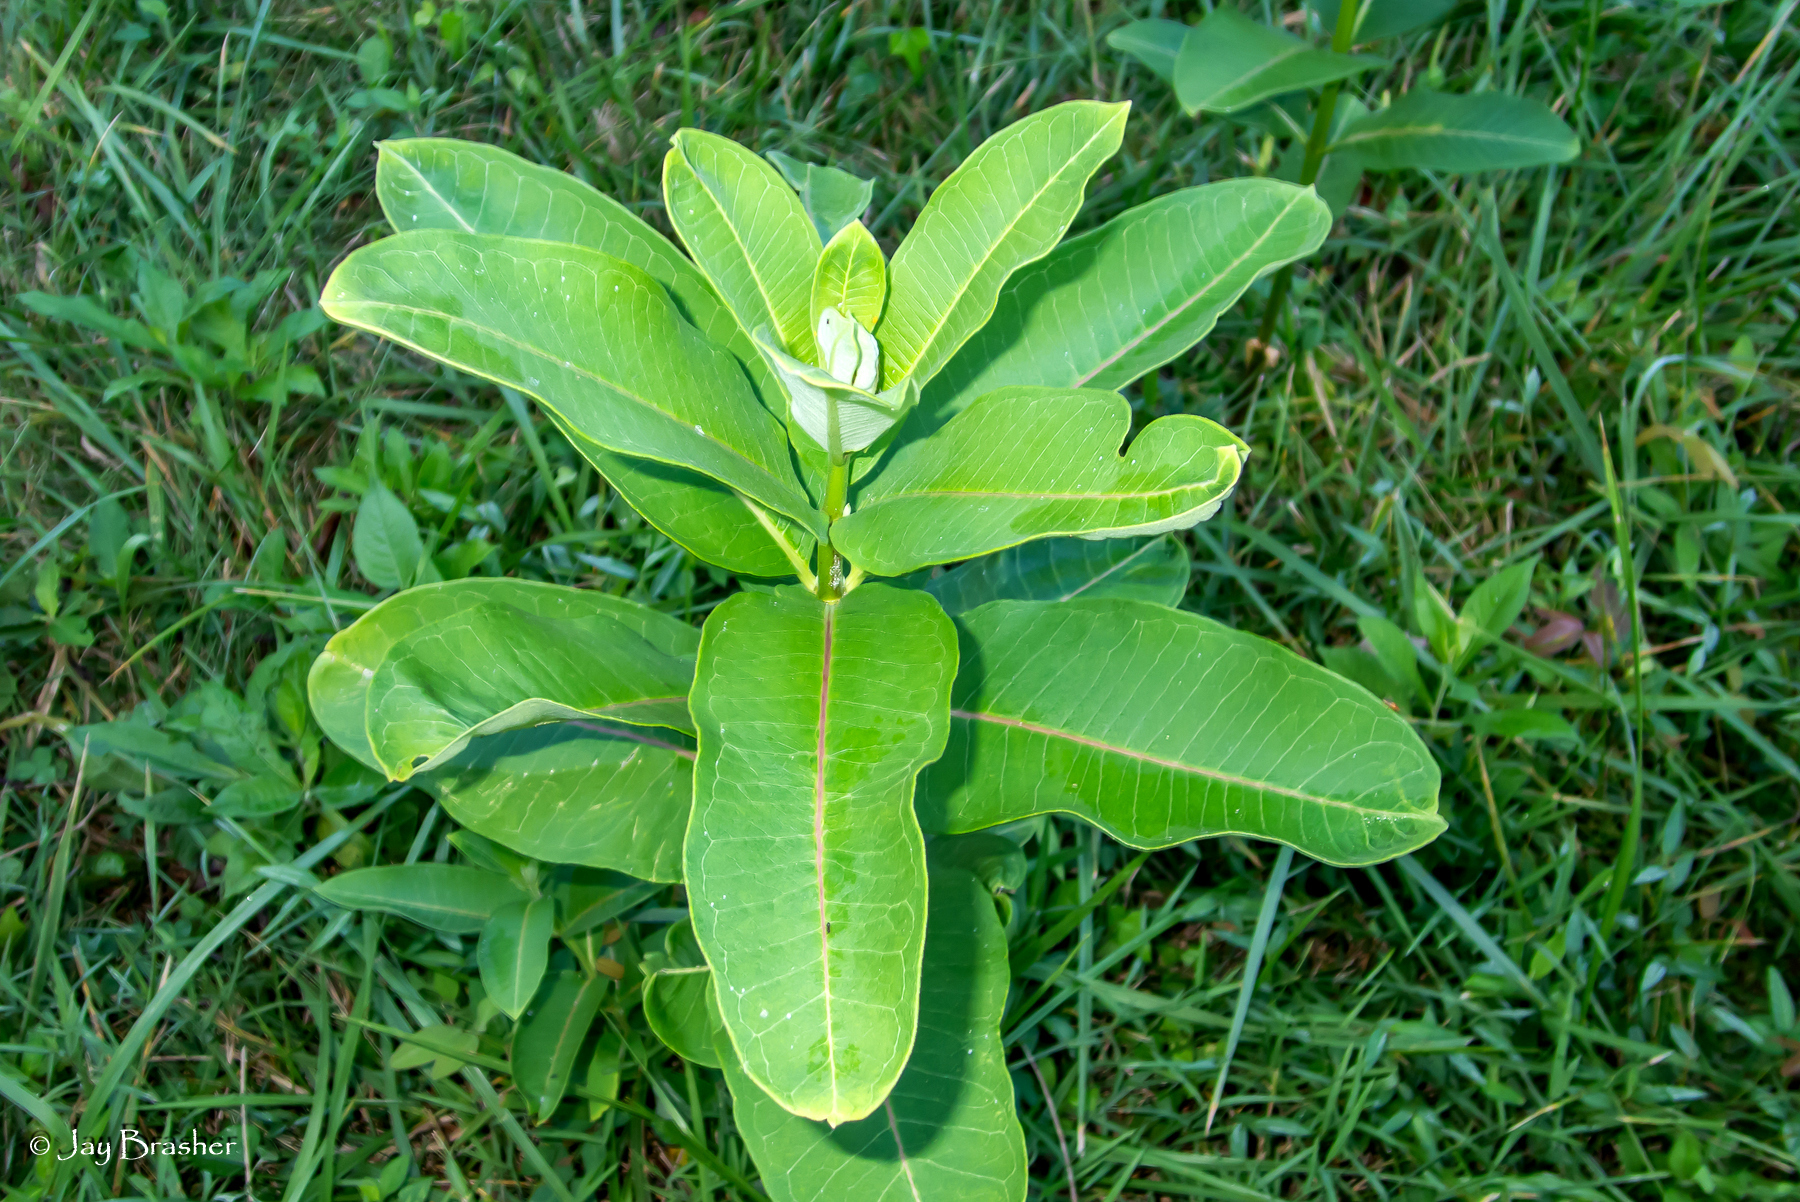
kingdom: Plantae
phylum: Tracheophyta
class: Magnoliopsida
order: Gentianales
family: Apocynaceae
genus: Asclepias
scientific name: Asclepias syriaca
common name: Common milkweed
